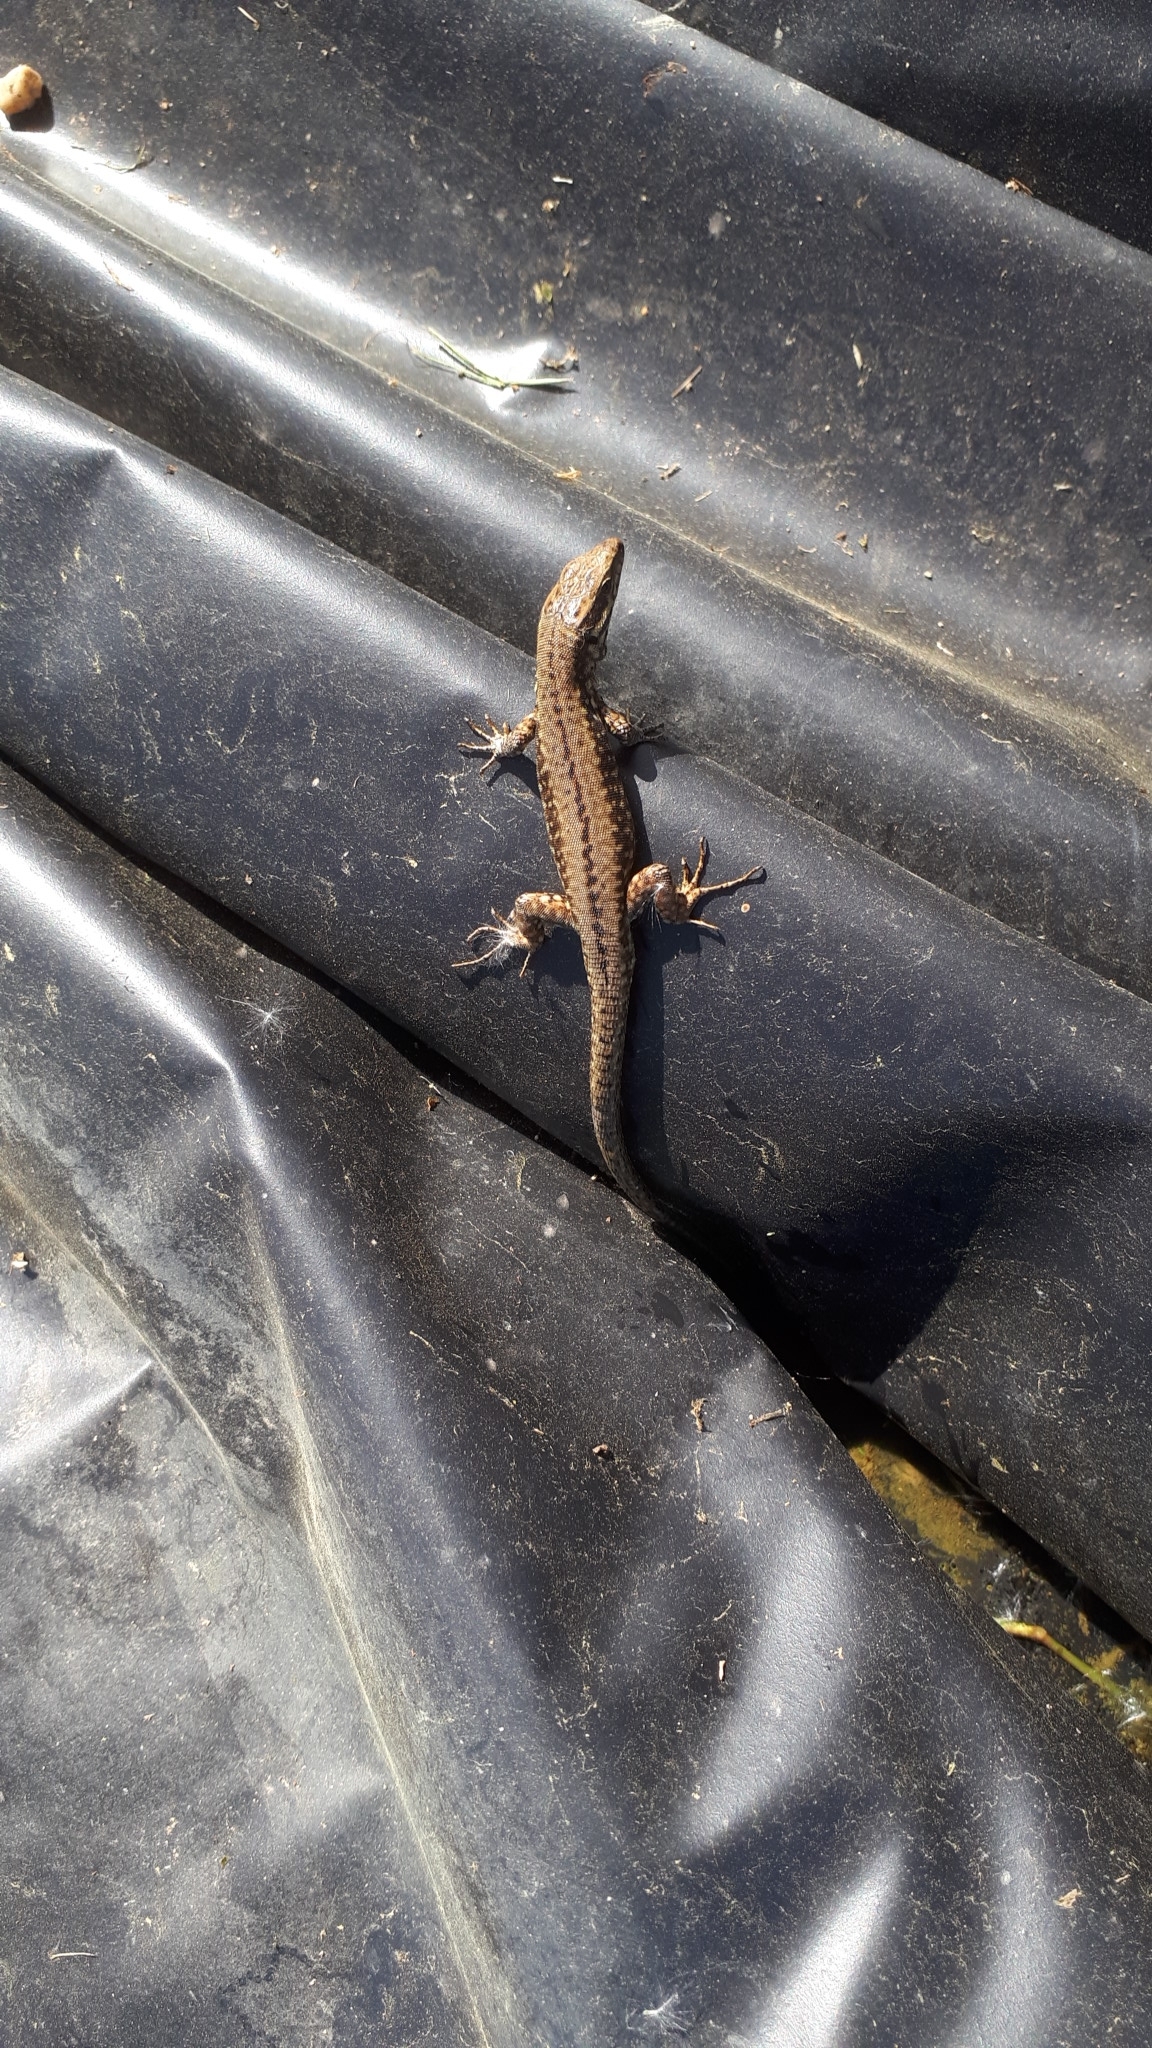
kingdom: Animalia
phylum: Chordata
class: Squamata
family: Lacertidae
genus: Podarcis
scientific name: Podarcis muralis
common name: Common wall lizard
